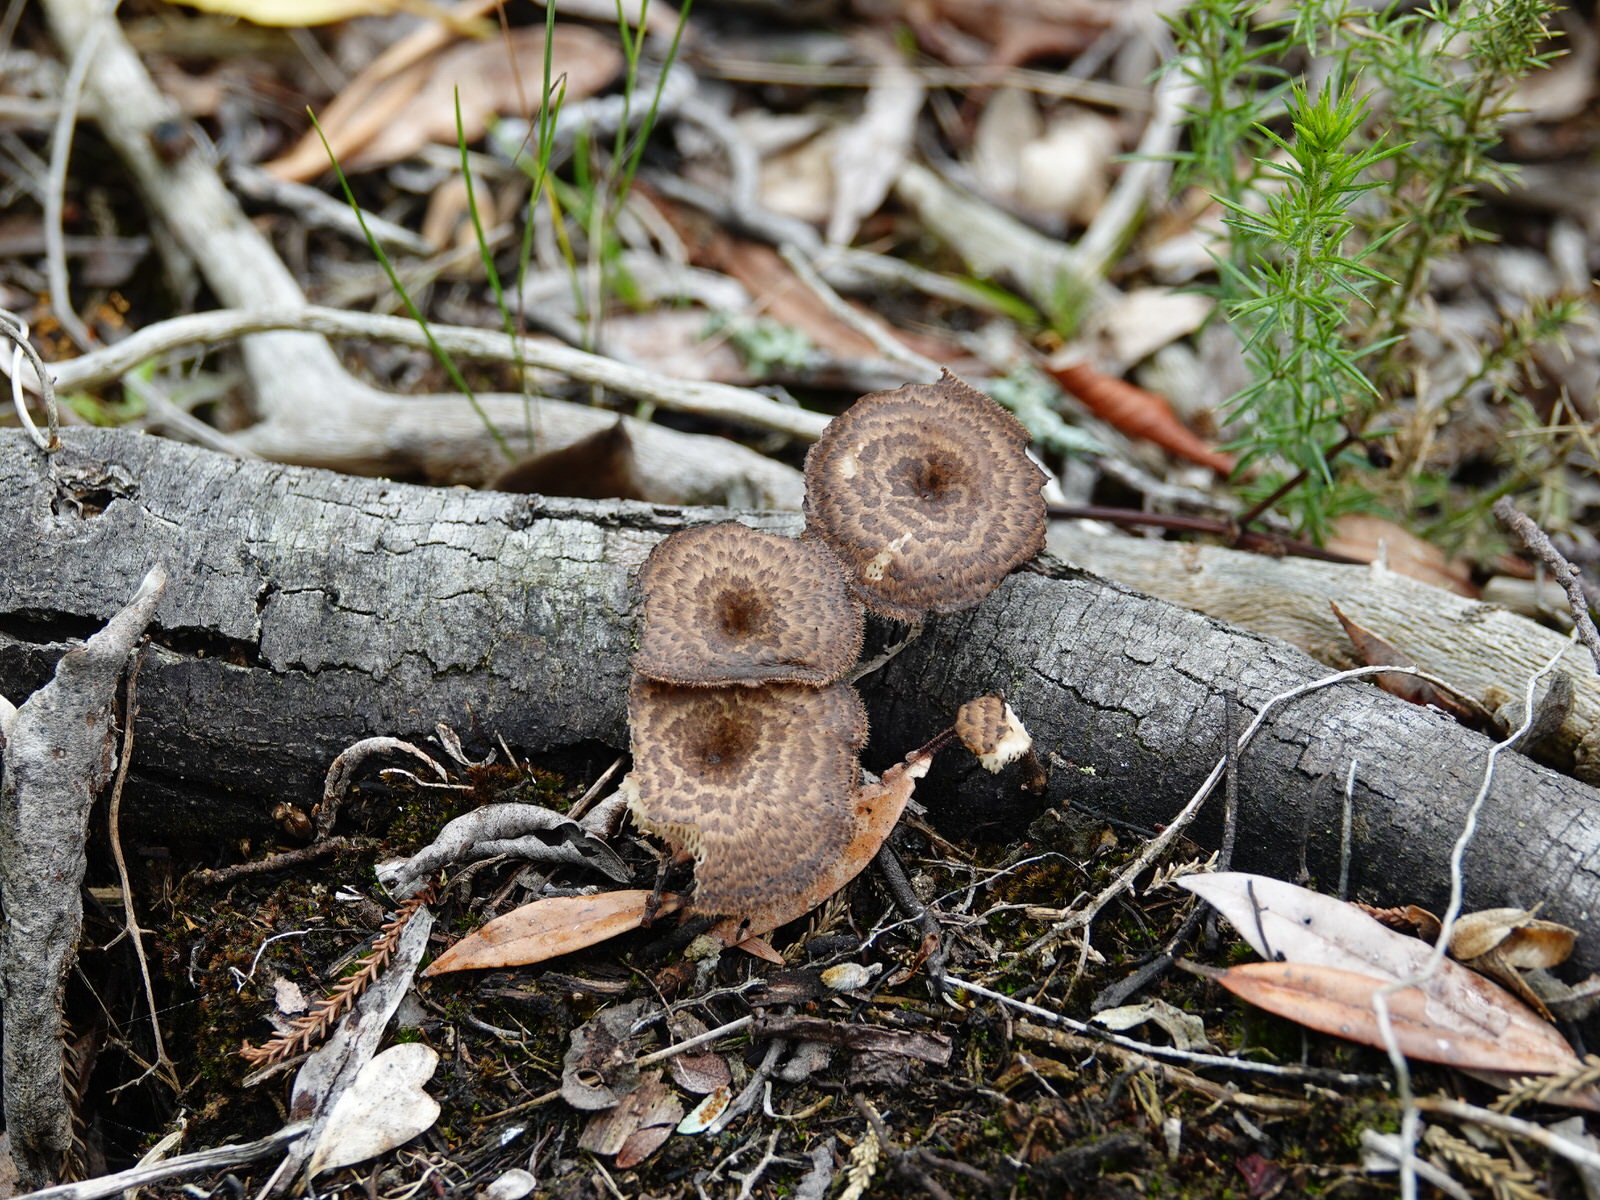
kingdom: Fungi
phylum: Basidiomycota
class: Agaricomycetes
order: Polyporales
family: Polyporaceae
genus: Lentinus
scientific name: Lentinus arcularius
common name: Spring polypore
